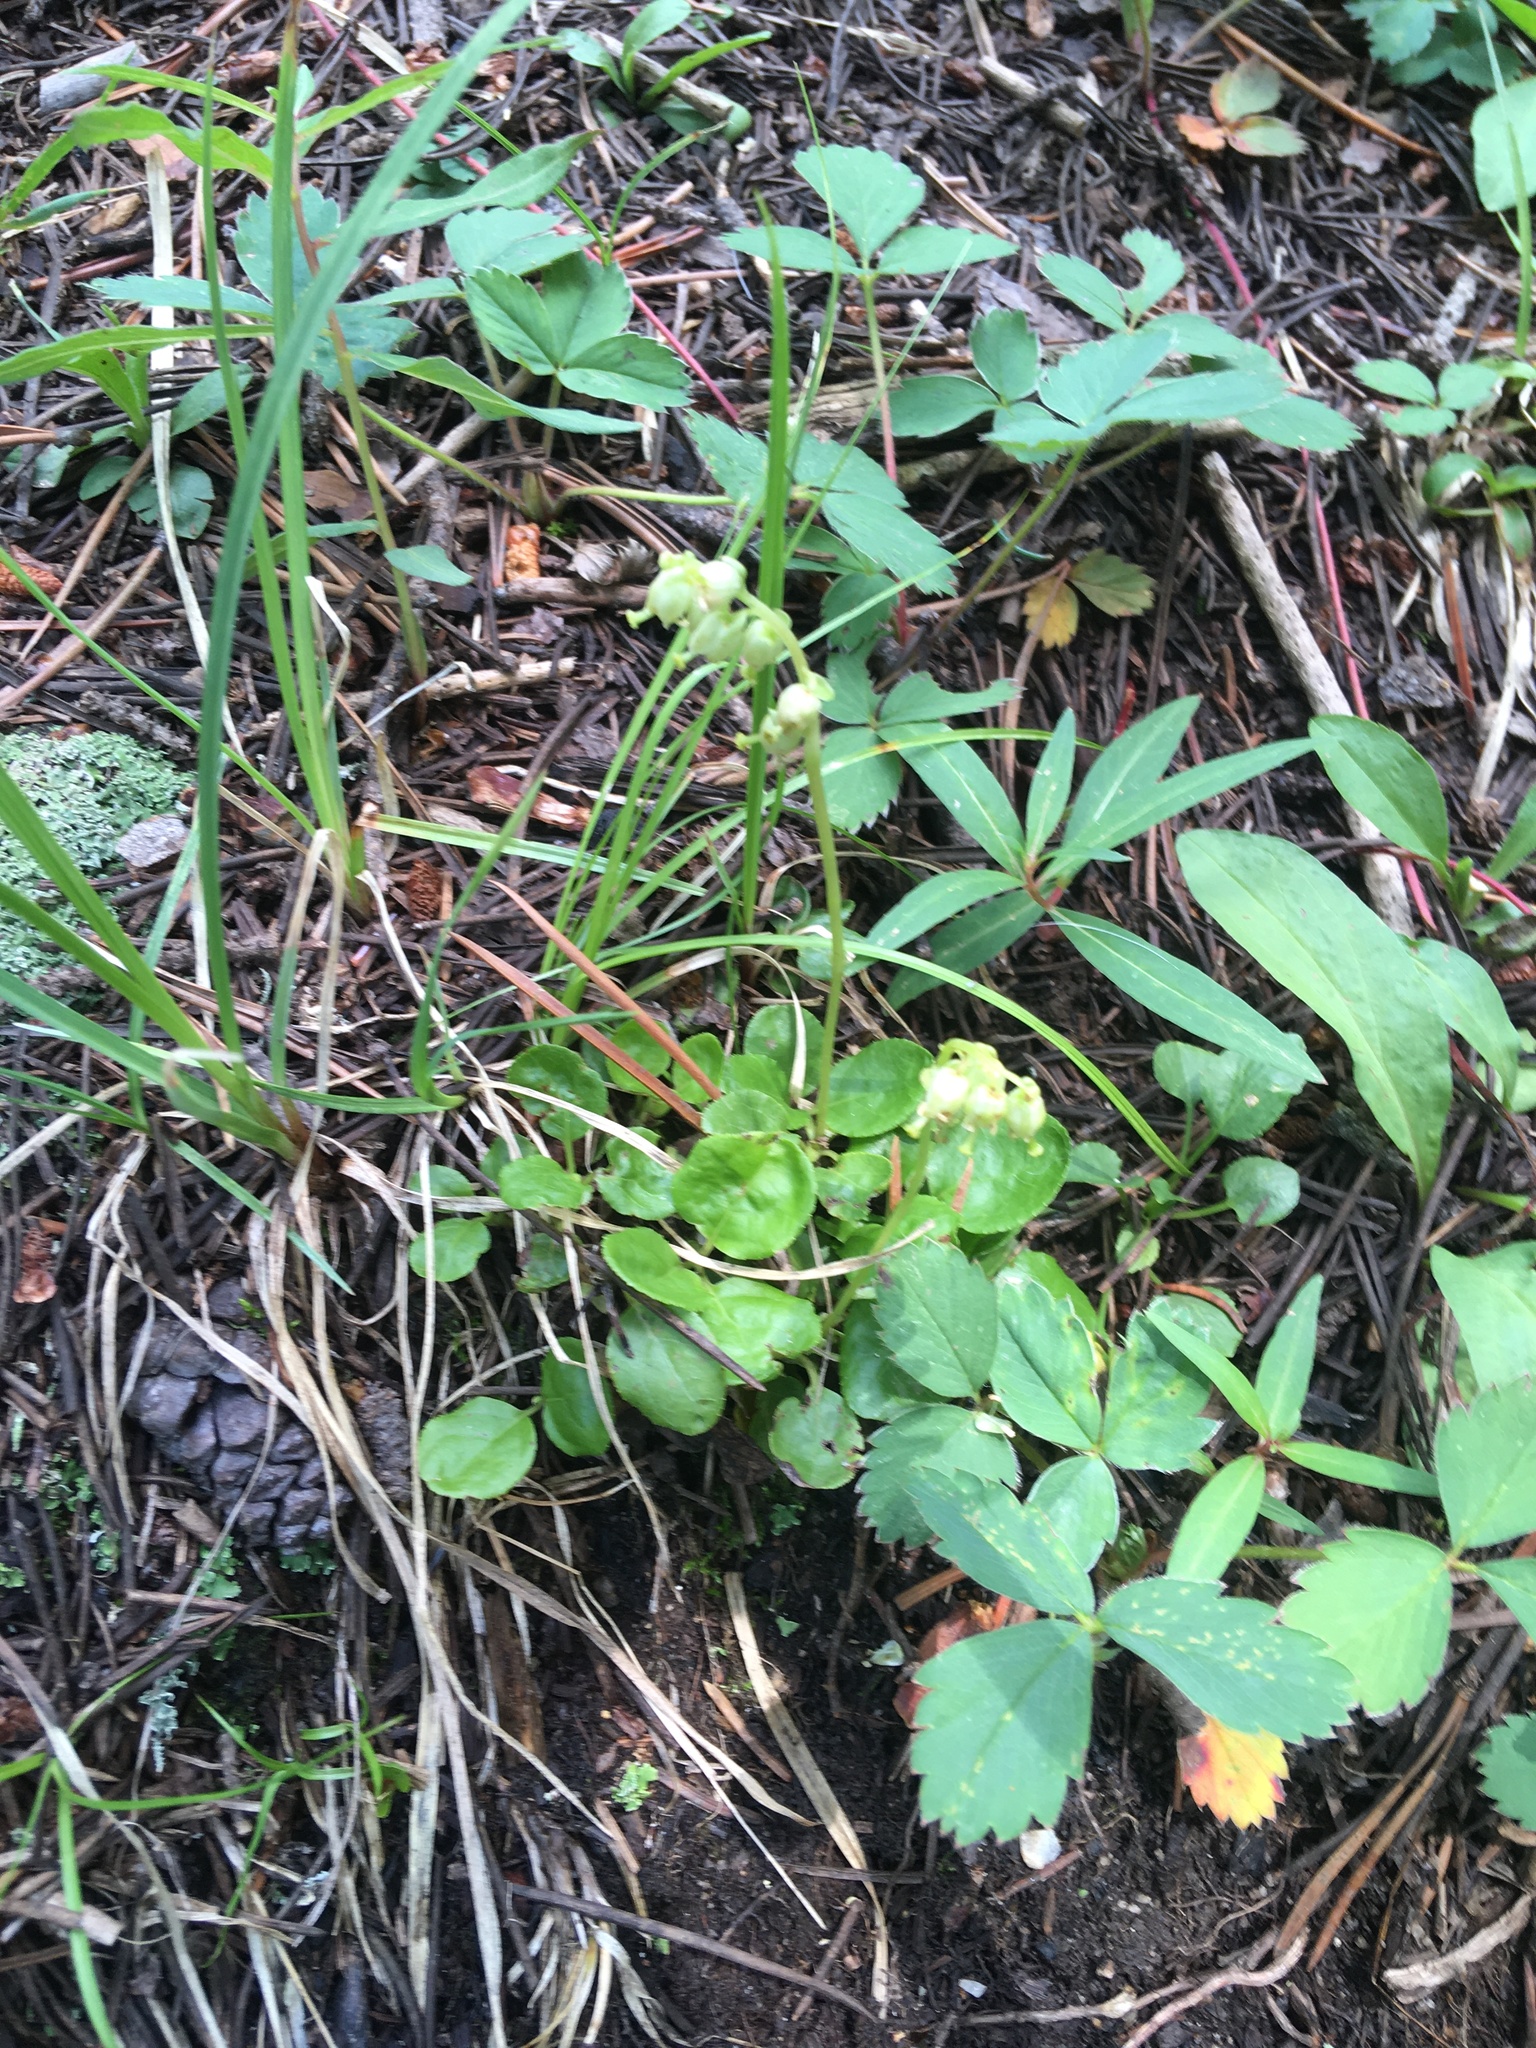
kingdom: Plantae
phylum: Tracheophyta
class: Magnoliopsida
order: Ericales
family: Ericaceae
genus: Orthilia
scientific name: Orthilia secunda
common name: One-sided orthilia
